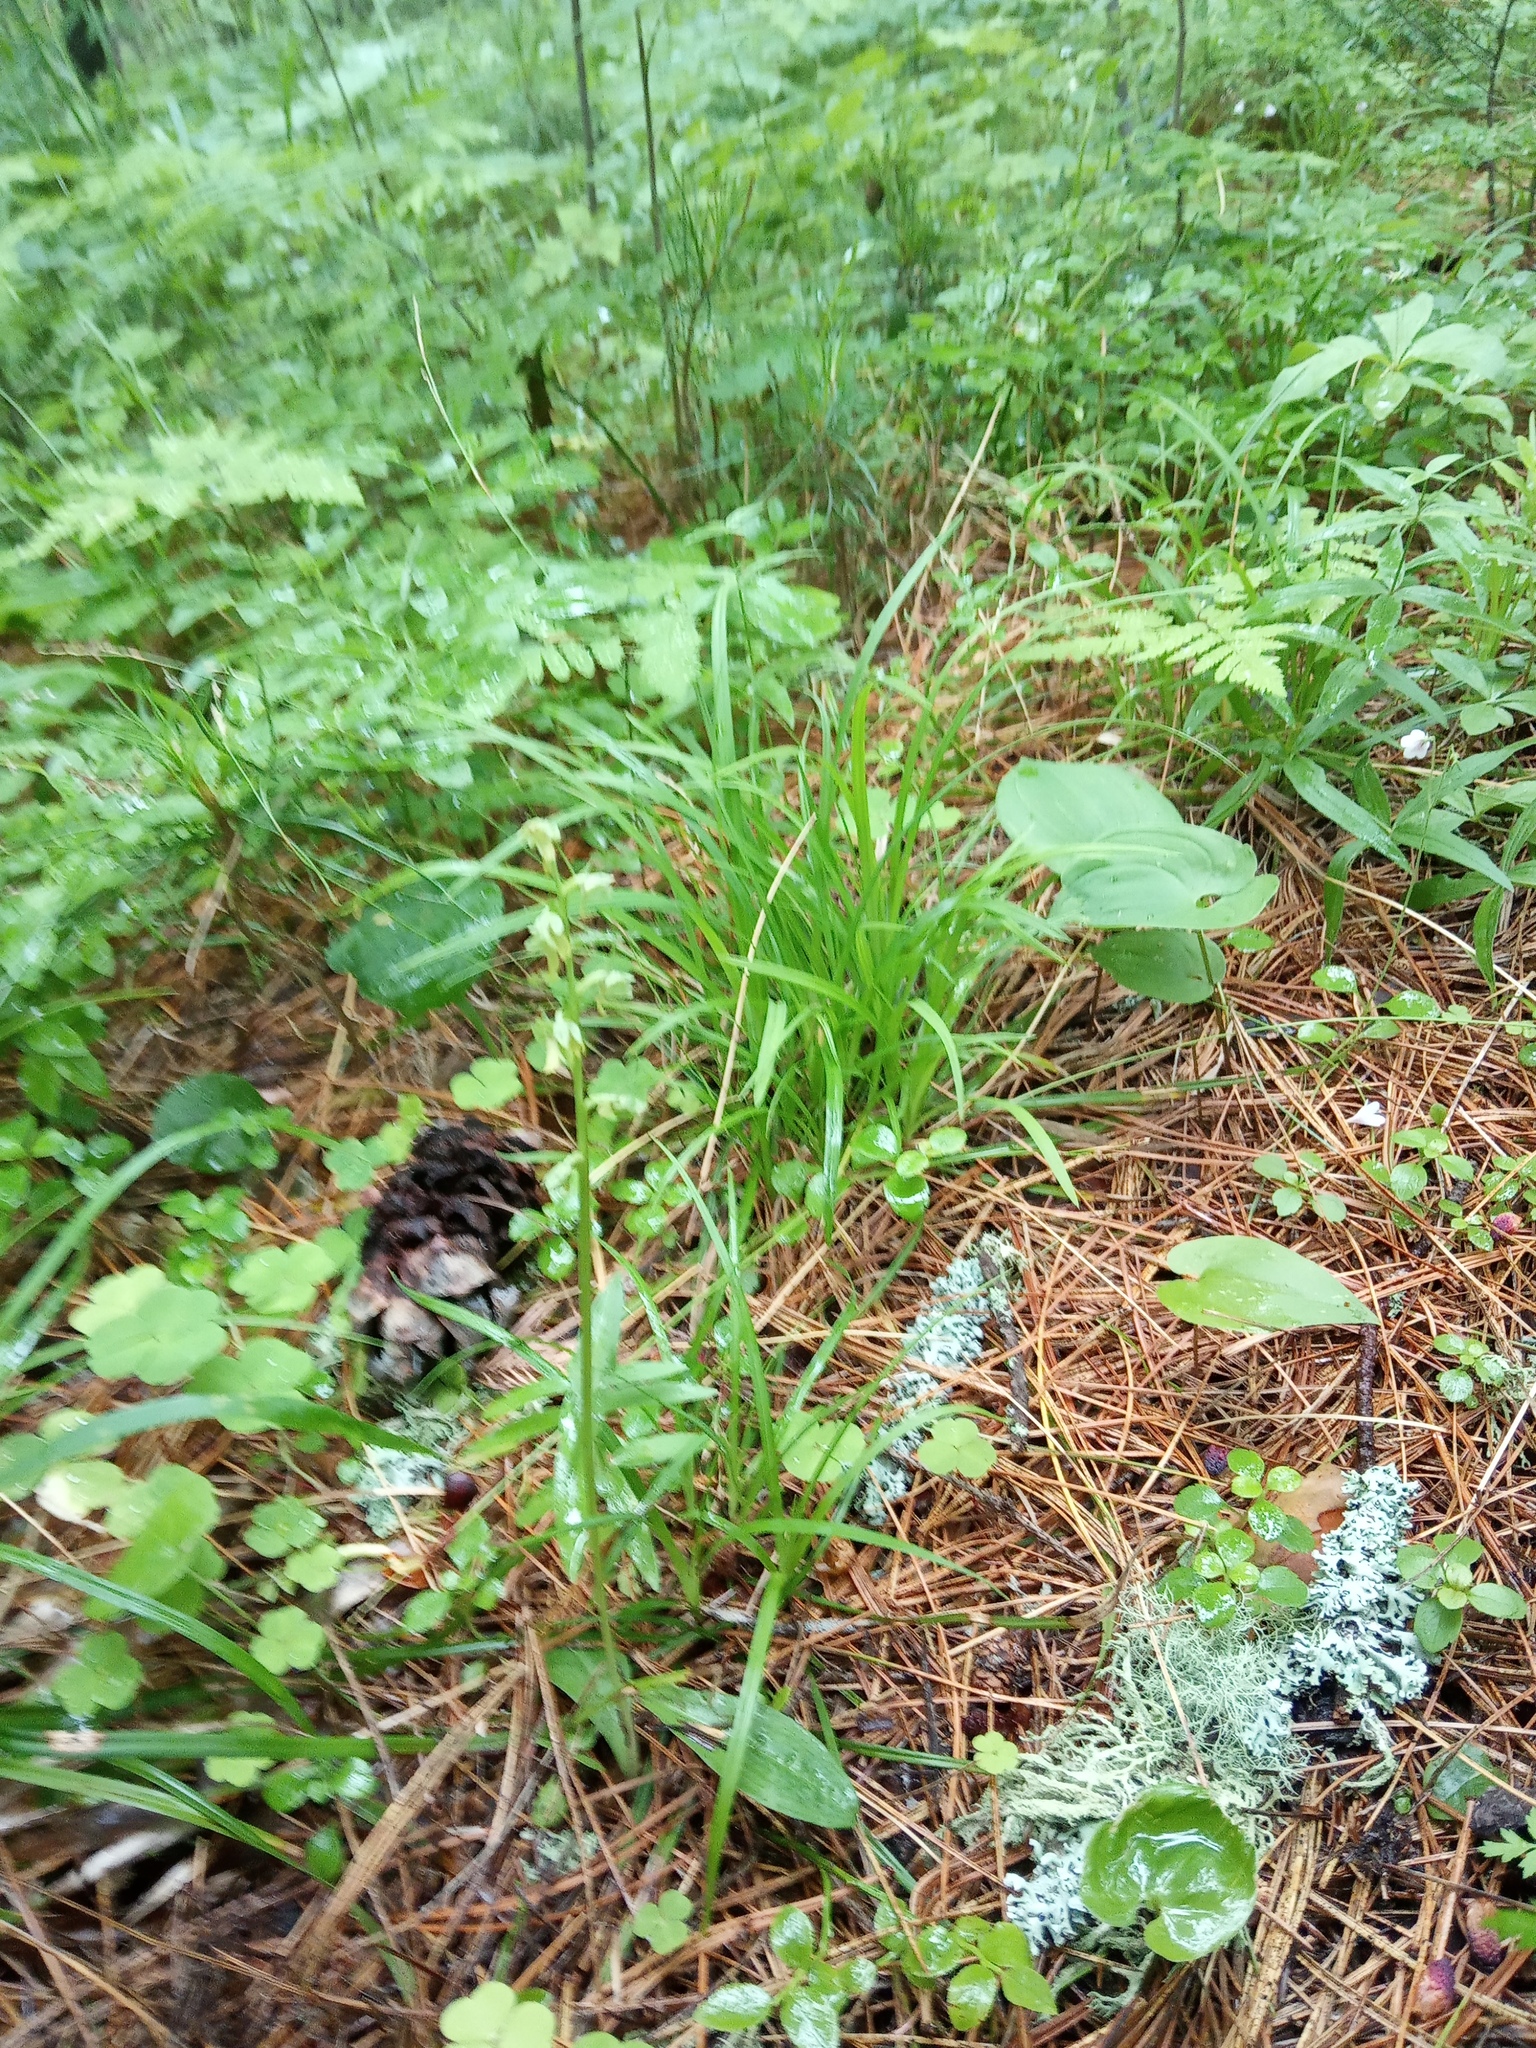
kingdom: Plantae
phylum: Tracheophyta
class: Liliopsida
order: Asparagales
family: Orchidaceae
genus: Dactylorhiza
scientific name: Dactylorhiza viridis
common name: Longbract frog orchid
